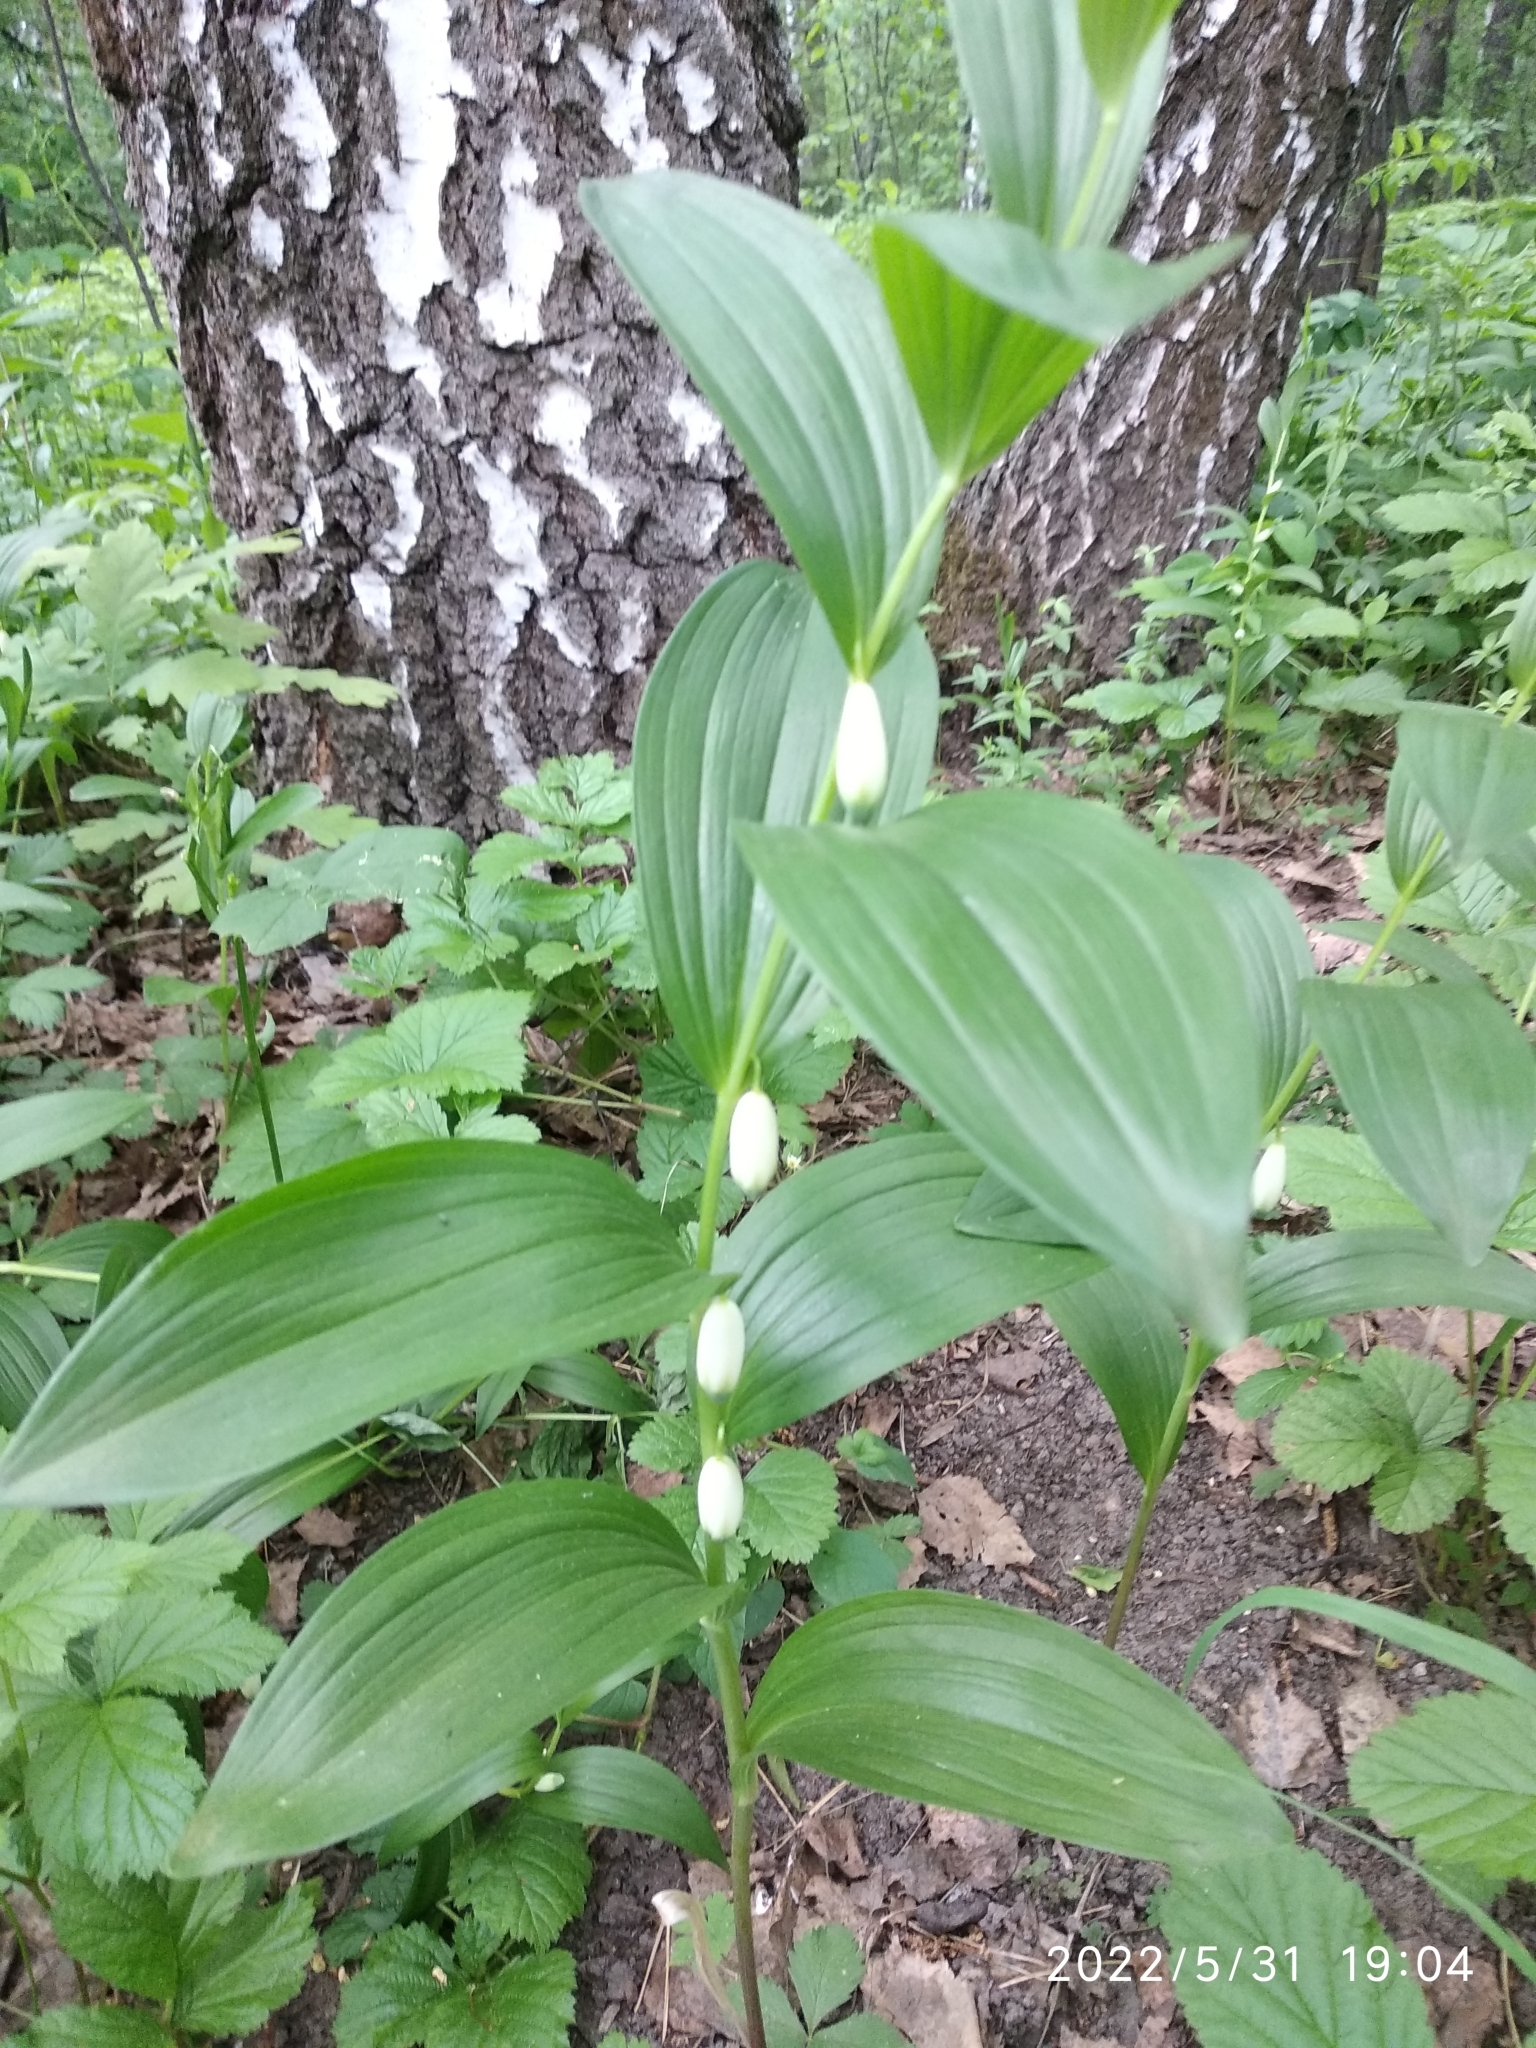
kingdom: Plantae
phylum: Tracheophyta
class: Liliopsida
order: Asparagales
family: Asparagaceae
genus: Polygonatum
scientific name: Polygonatum humile
